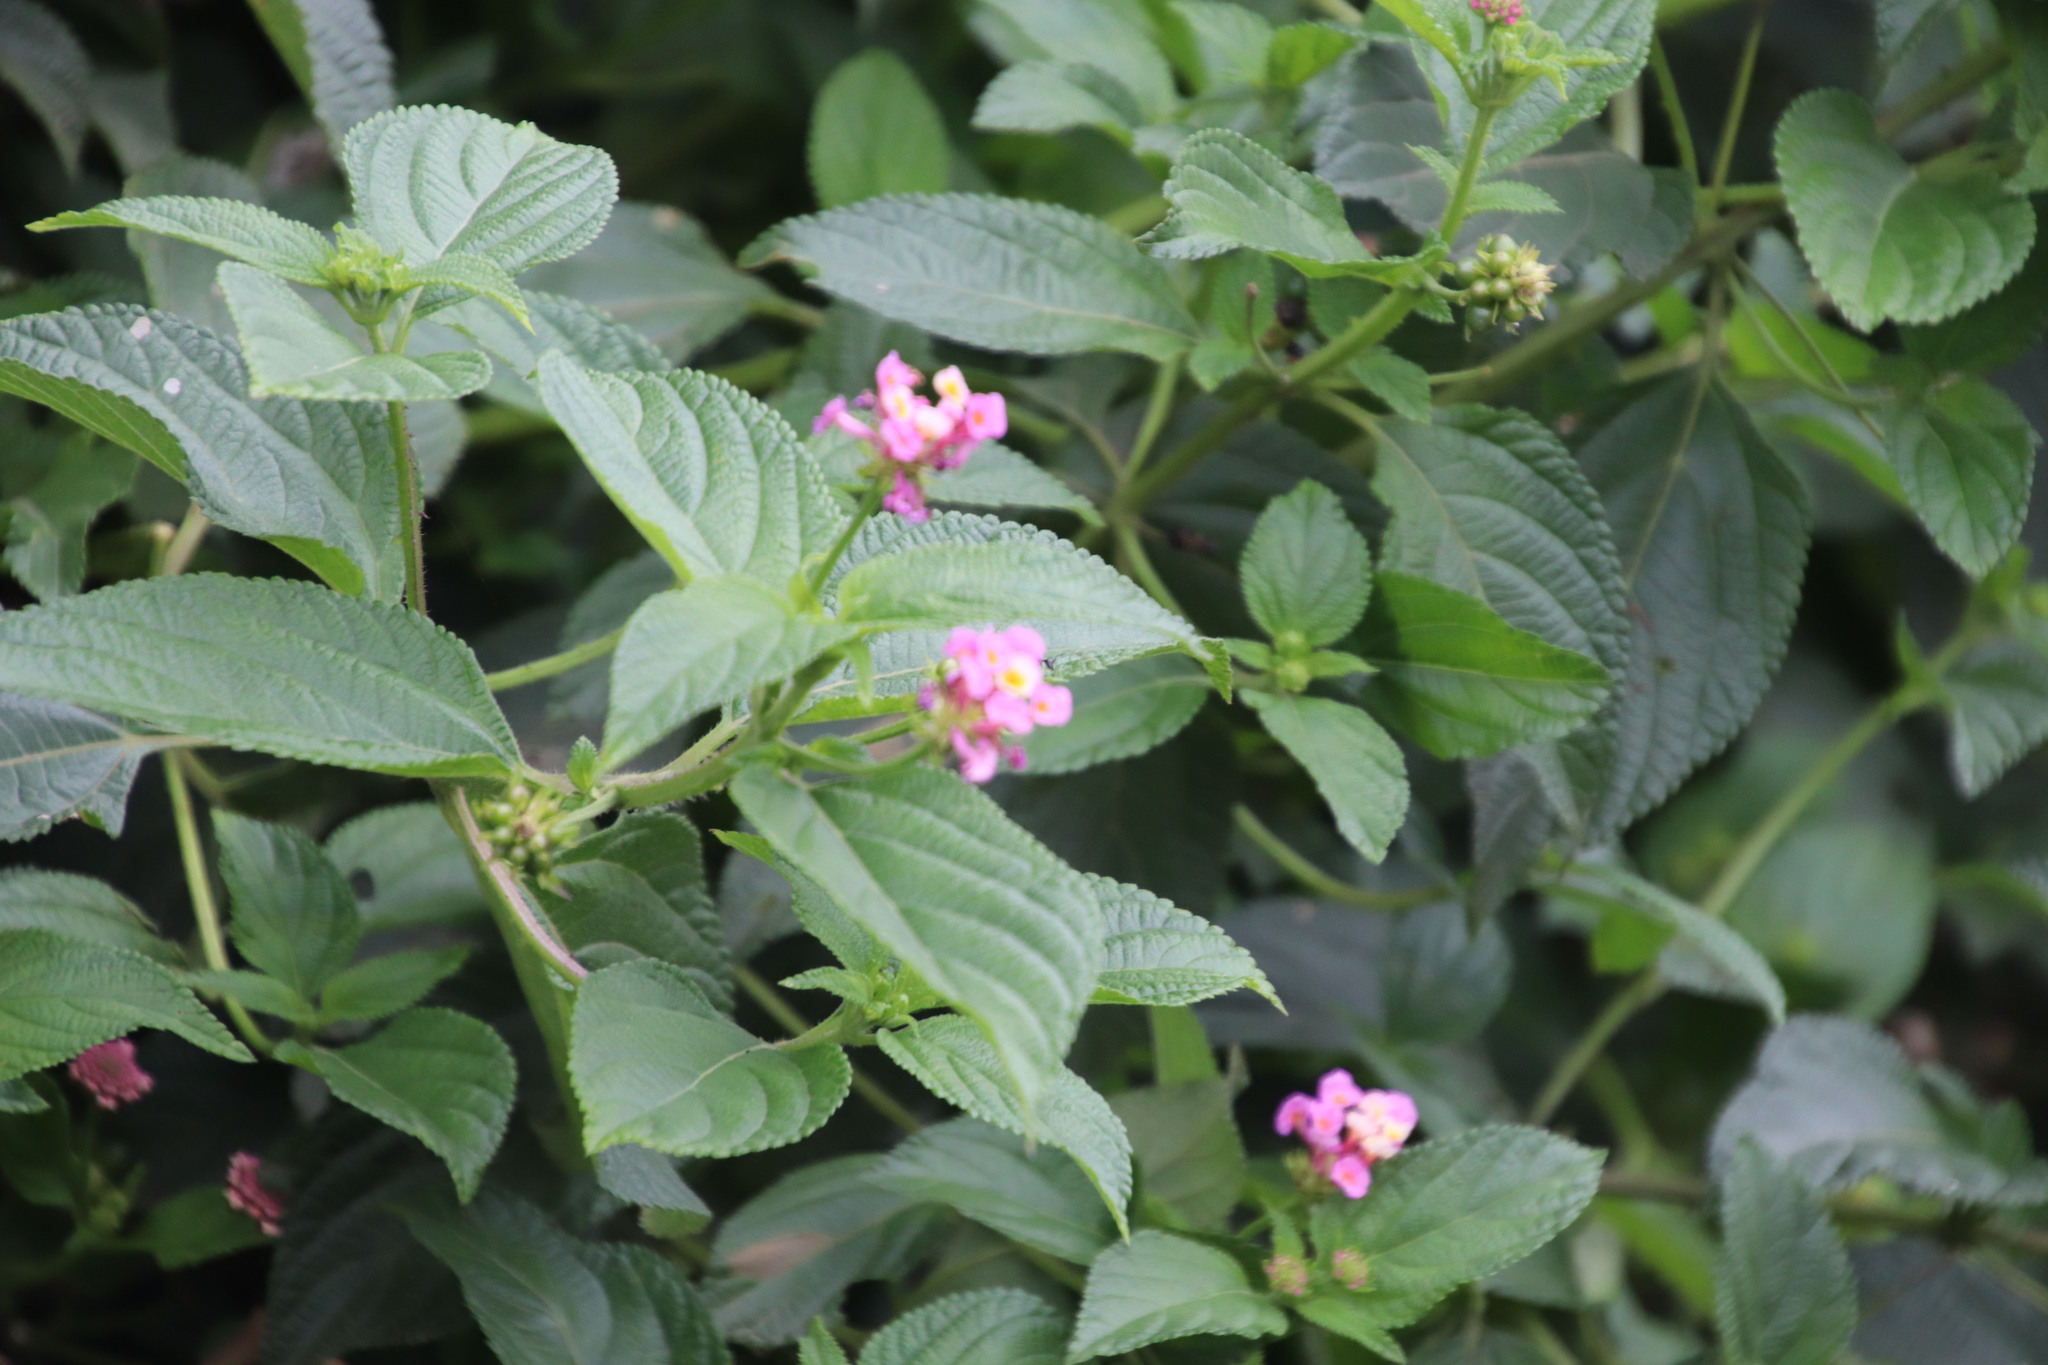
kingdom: Plantae
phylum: Tracheophyta
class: Magnoliopsida
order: Lamiales
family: Verbenaceae
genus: Lantana
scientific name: Lantana camara
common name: Lantana
